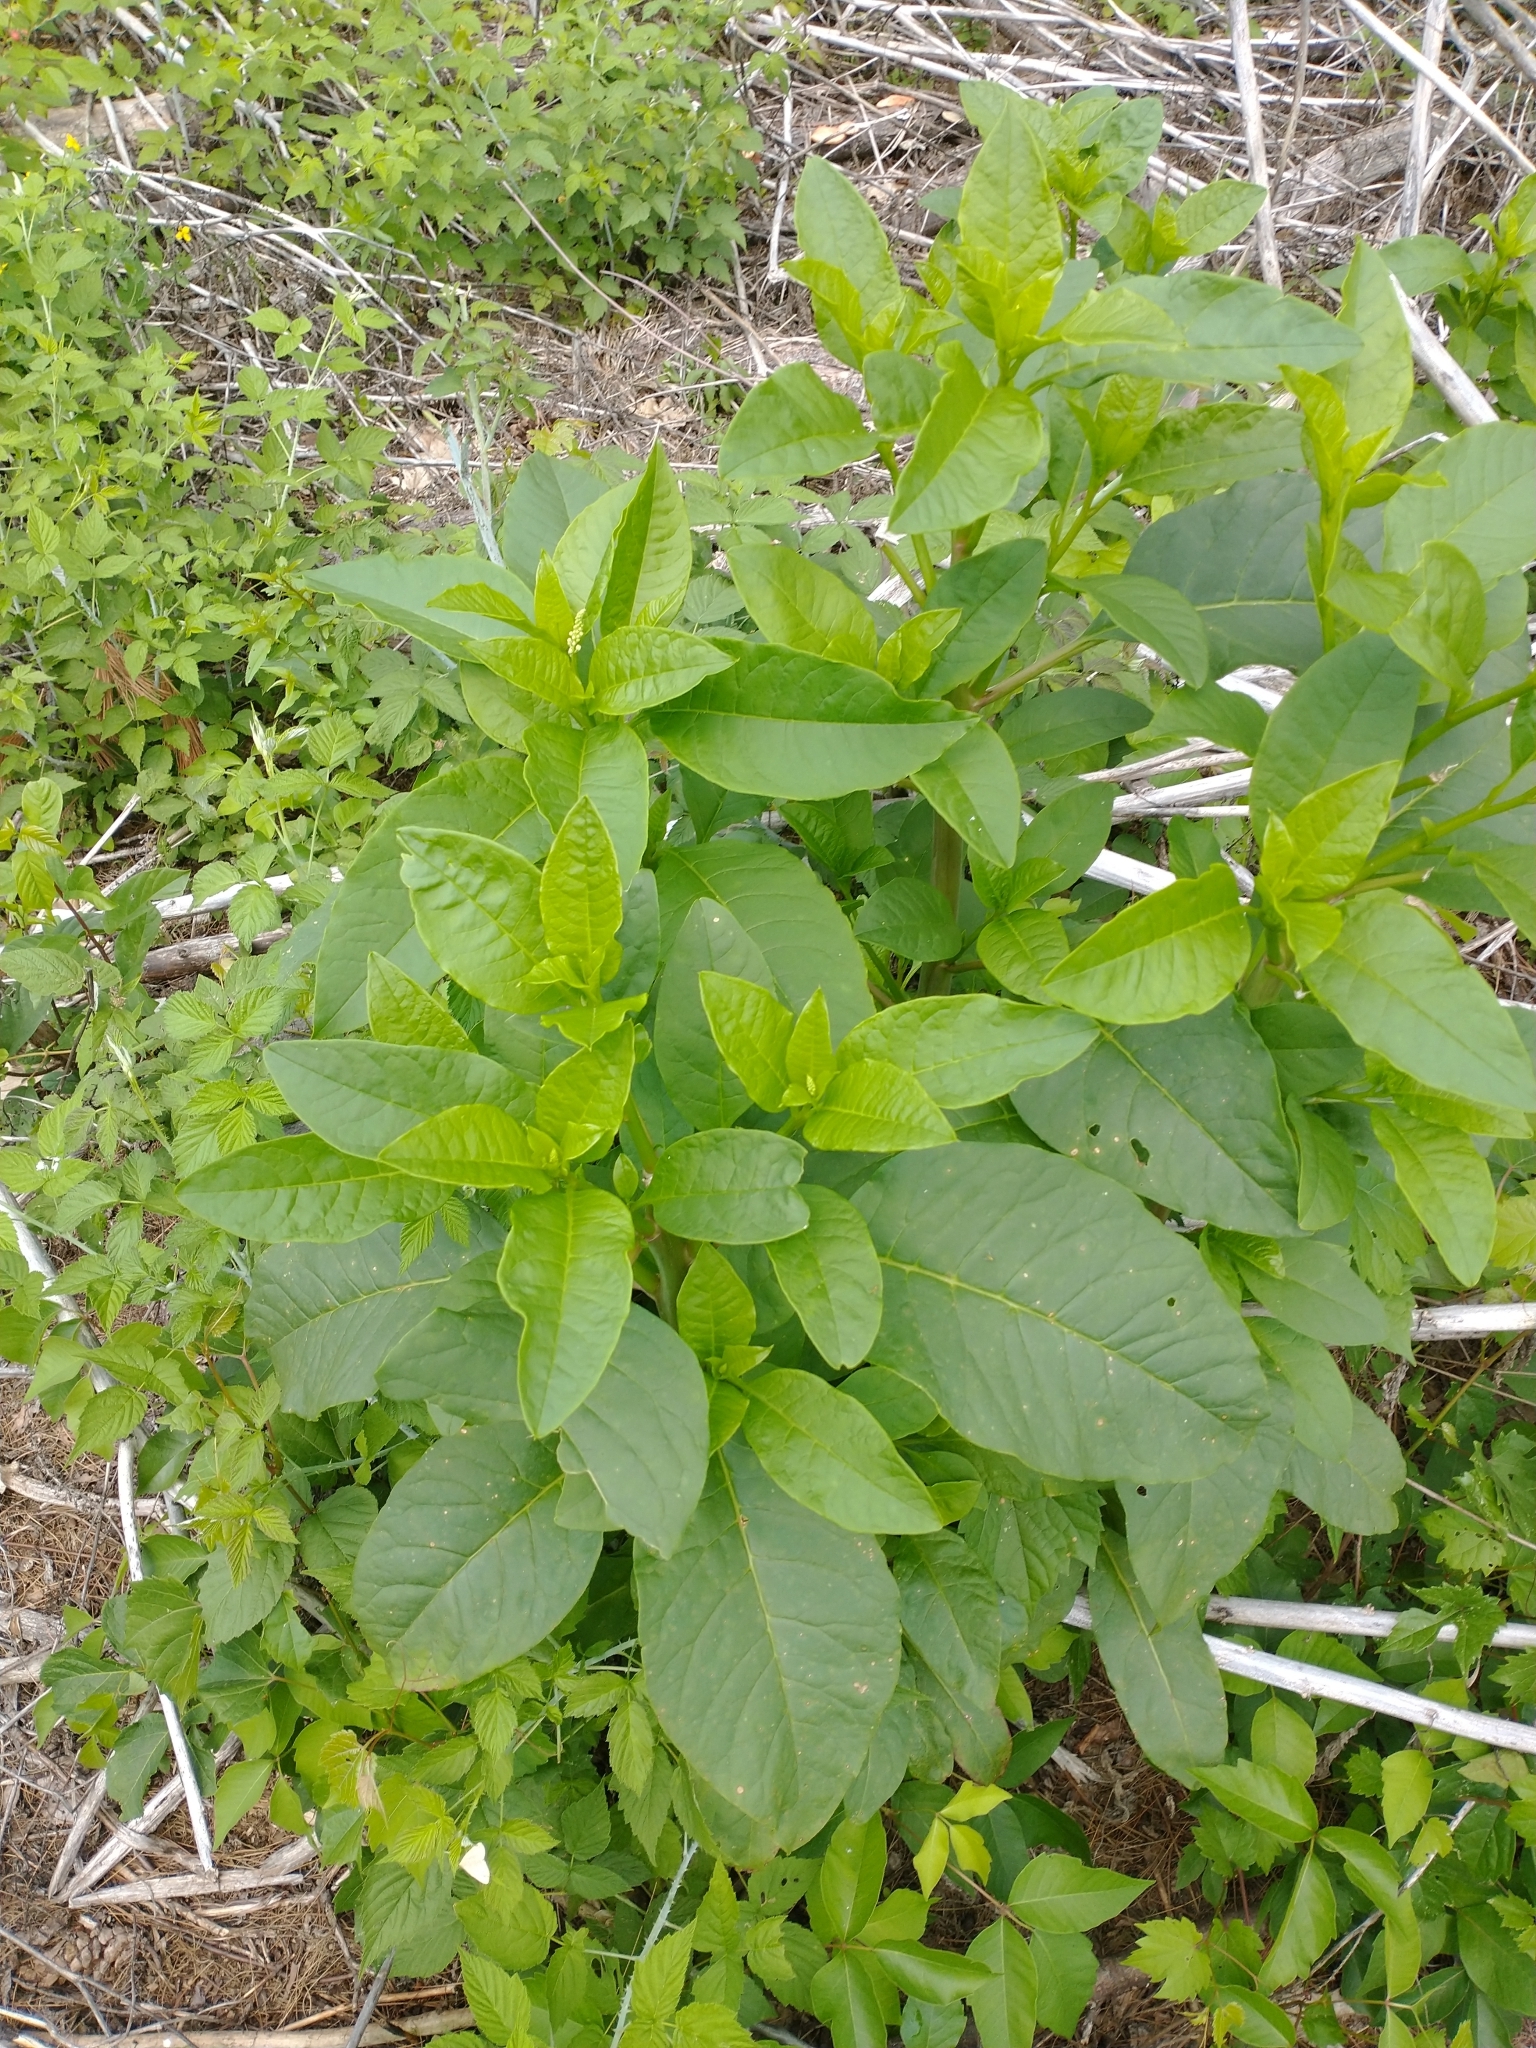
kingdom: Plantae
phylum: Tracheophyta
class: Magnoliopsida
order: Caryophyllales
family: Phytolaccaceae
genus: Phytolacca
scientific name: Phytolacca americana
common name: American pokeweed
